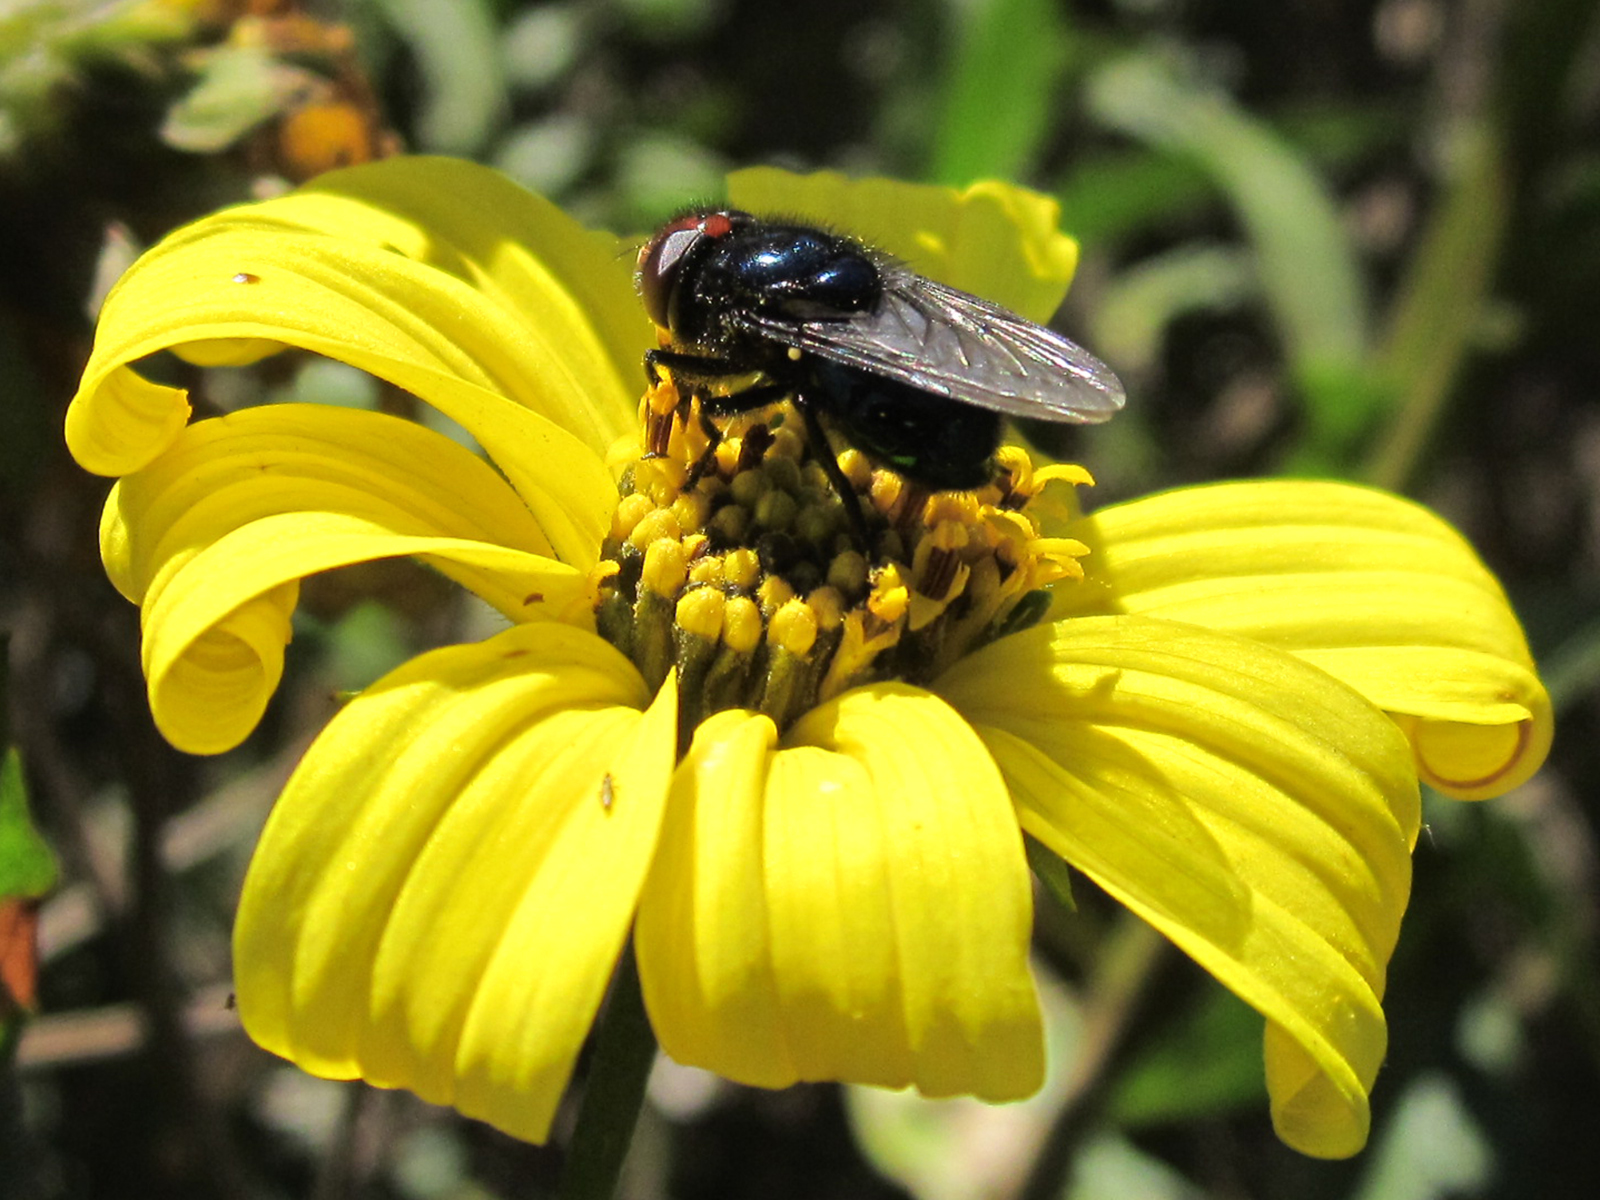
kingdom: Animalia
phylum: Arthropoda
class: Insecta
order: Diptera
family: Syrphidae
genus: Copestylum
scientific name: Copestylum nigripes
